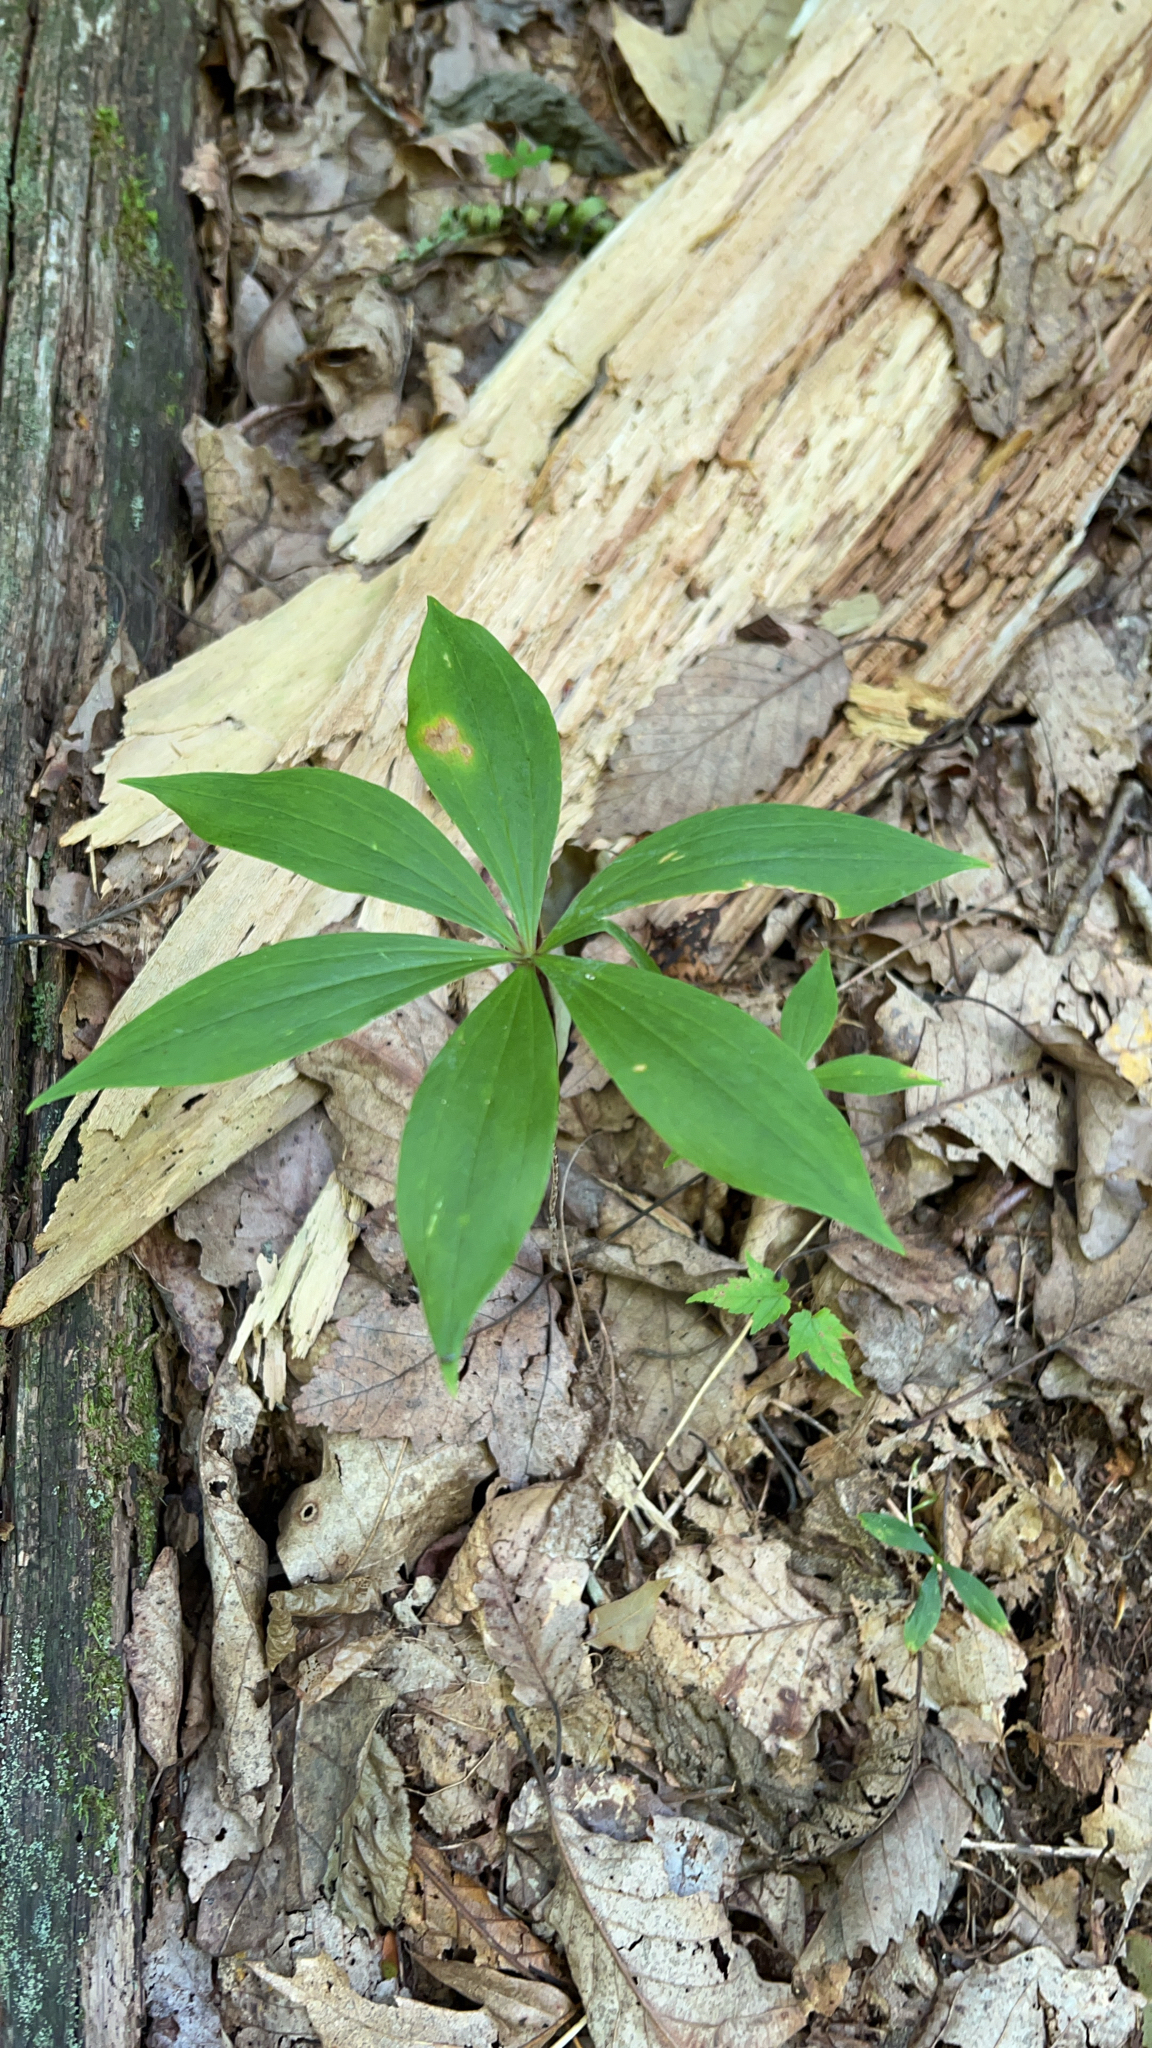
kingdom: Plantae
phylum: Tracheophyta
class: Liliopsida
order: Liliales
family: Liliaceae
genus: Medeola
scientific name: Medeola virginiana
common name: Indian cucumber-root
